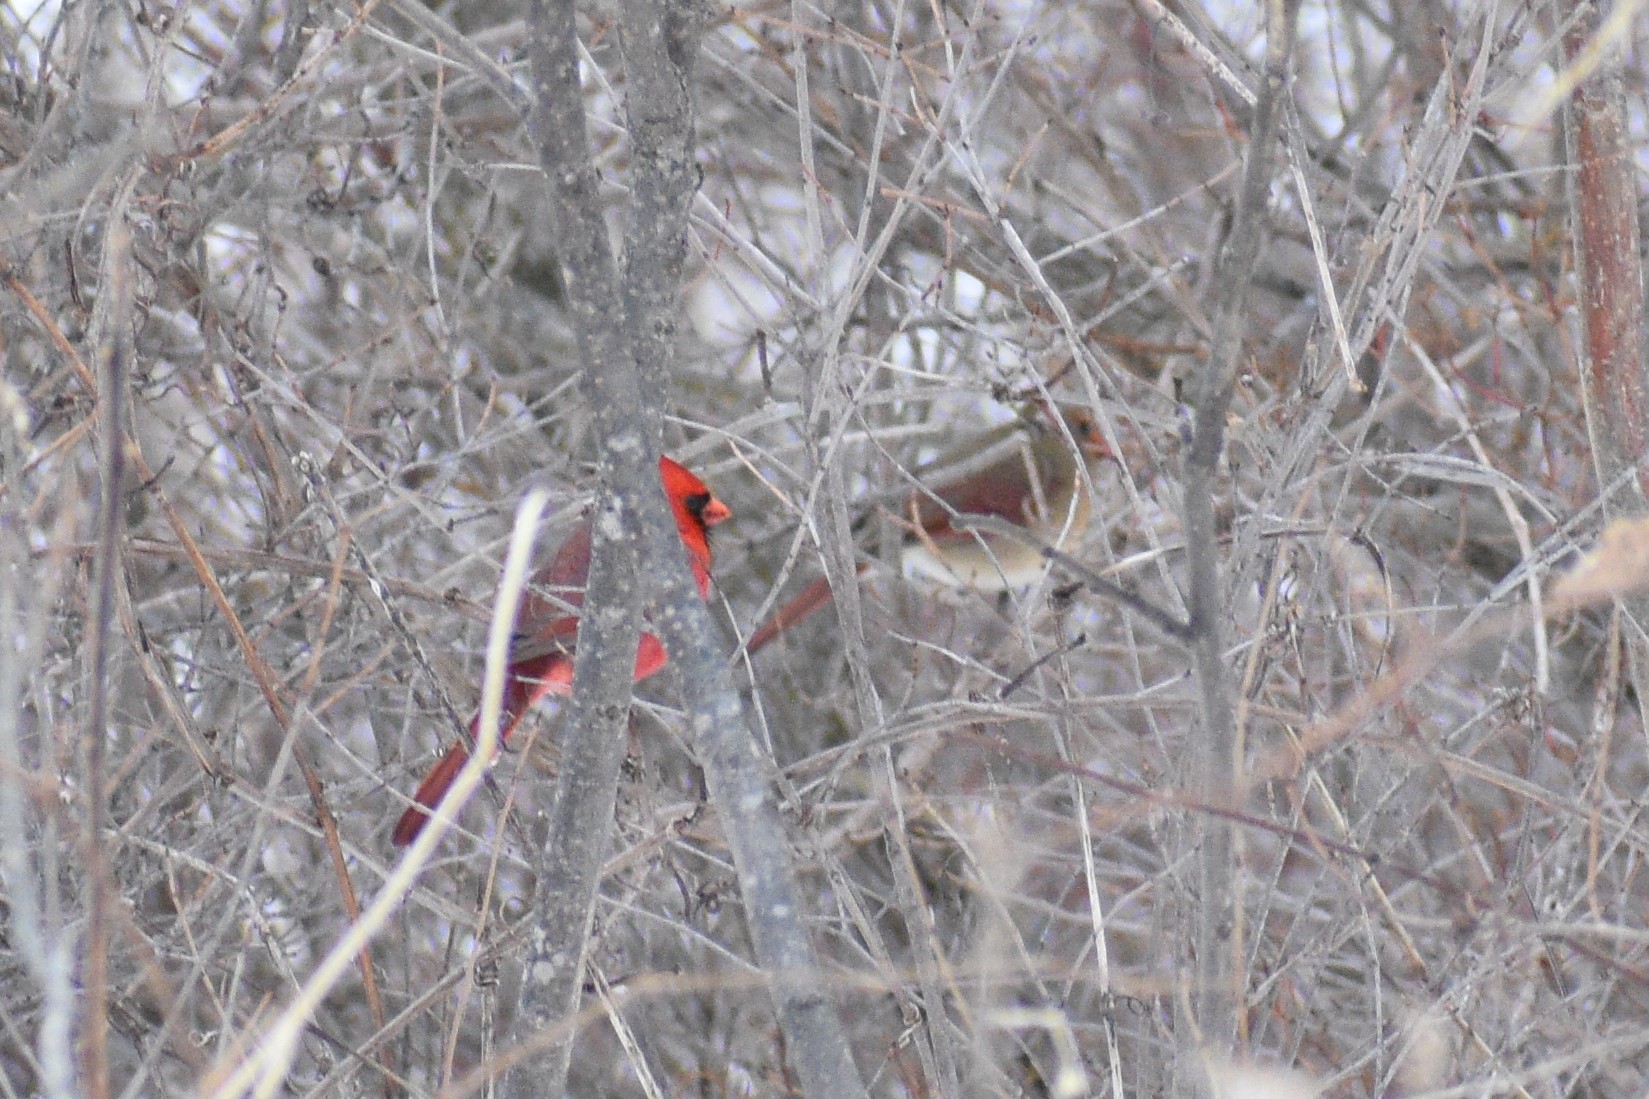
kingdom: Animalia
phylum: Chordata
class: Aves
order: Passeriformes
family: Cardinalidae
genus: Cardinalis
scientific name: Cardinalis cardinalis
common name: Northern cardinal
